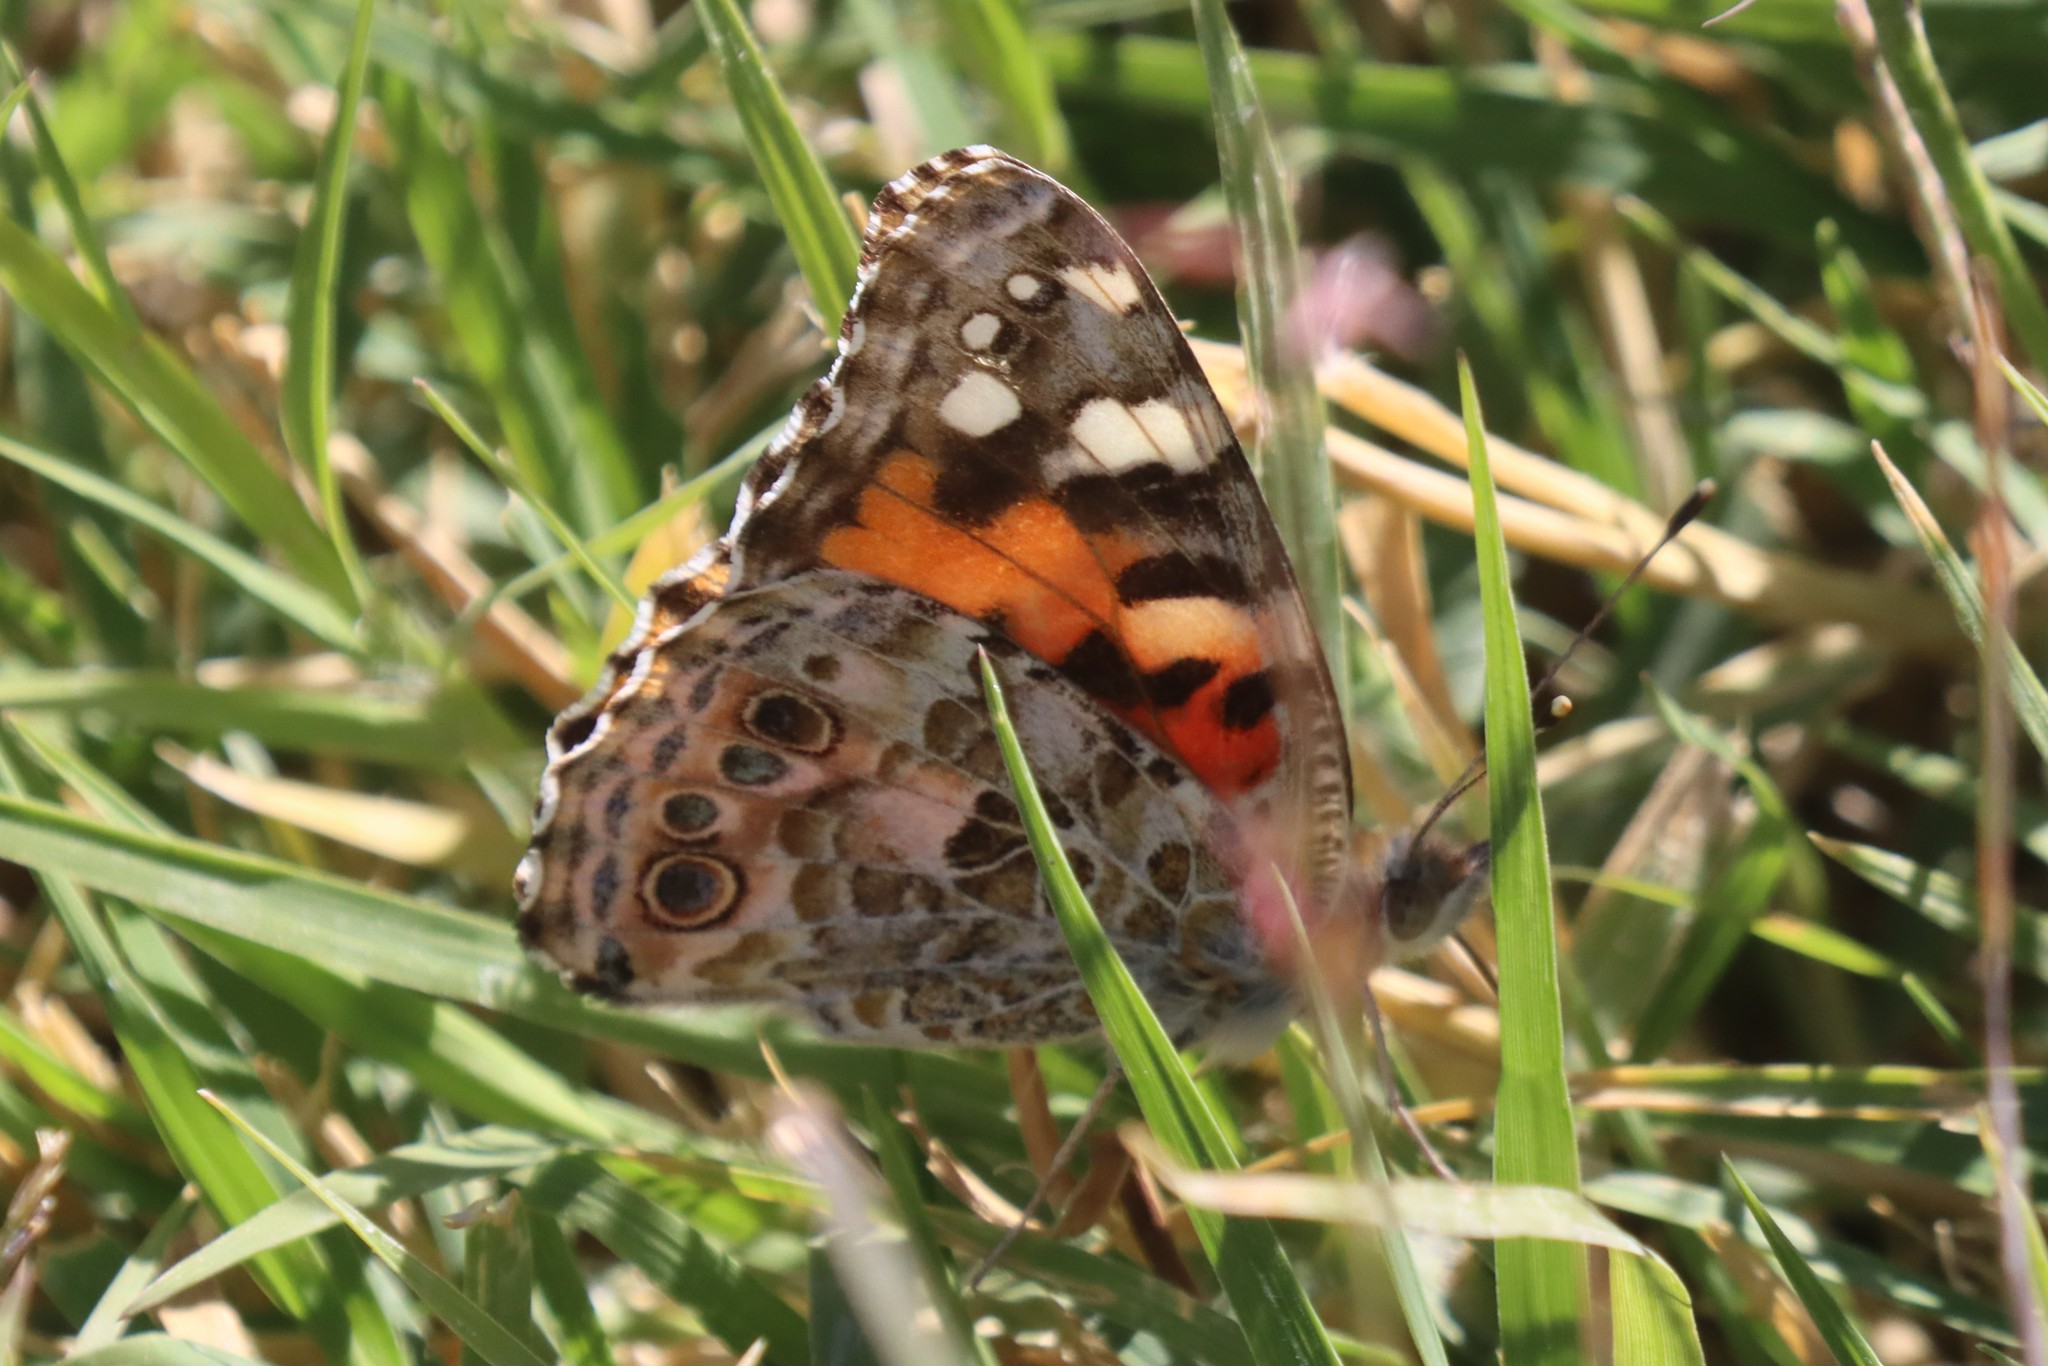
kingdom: Animalia
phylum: Arthropoda
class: Insecta
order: Lepidoptera
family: Nymphalidae
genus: Vanessa
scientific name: Vanessa cardui
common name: Painted lady
